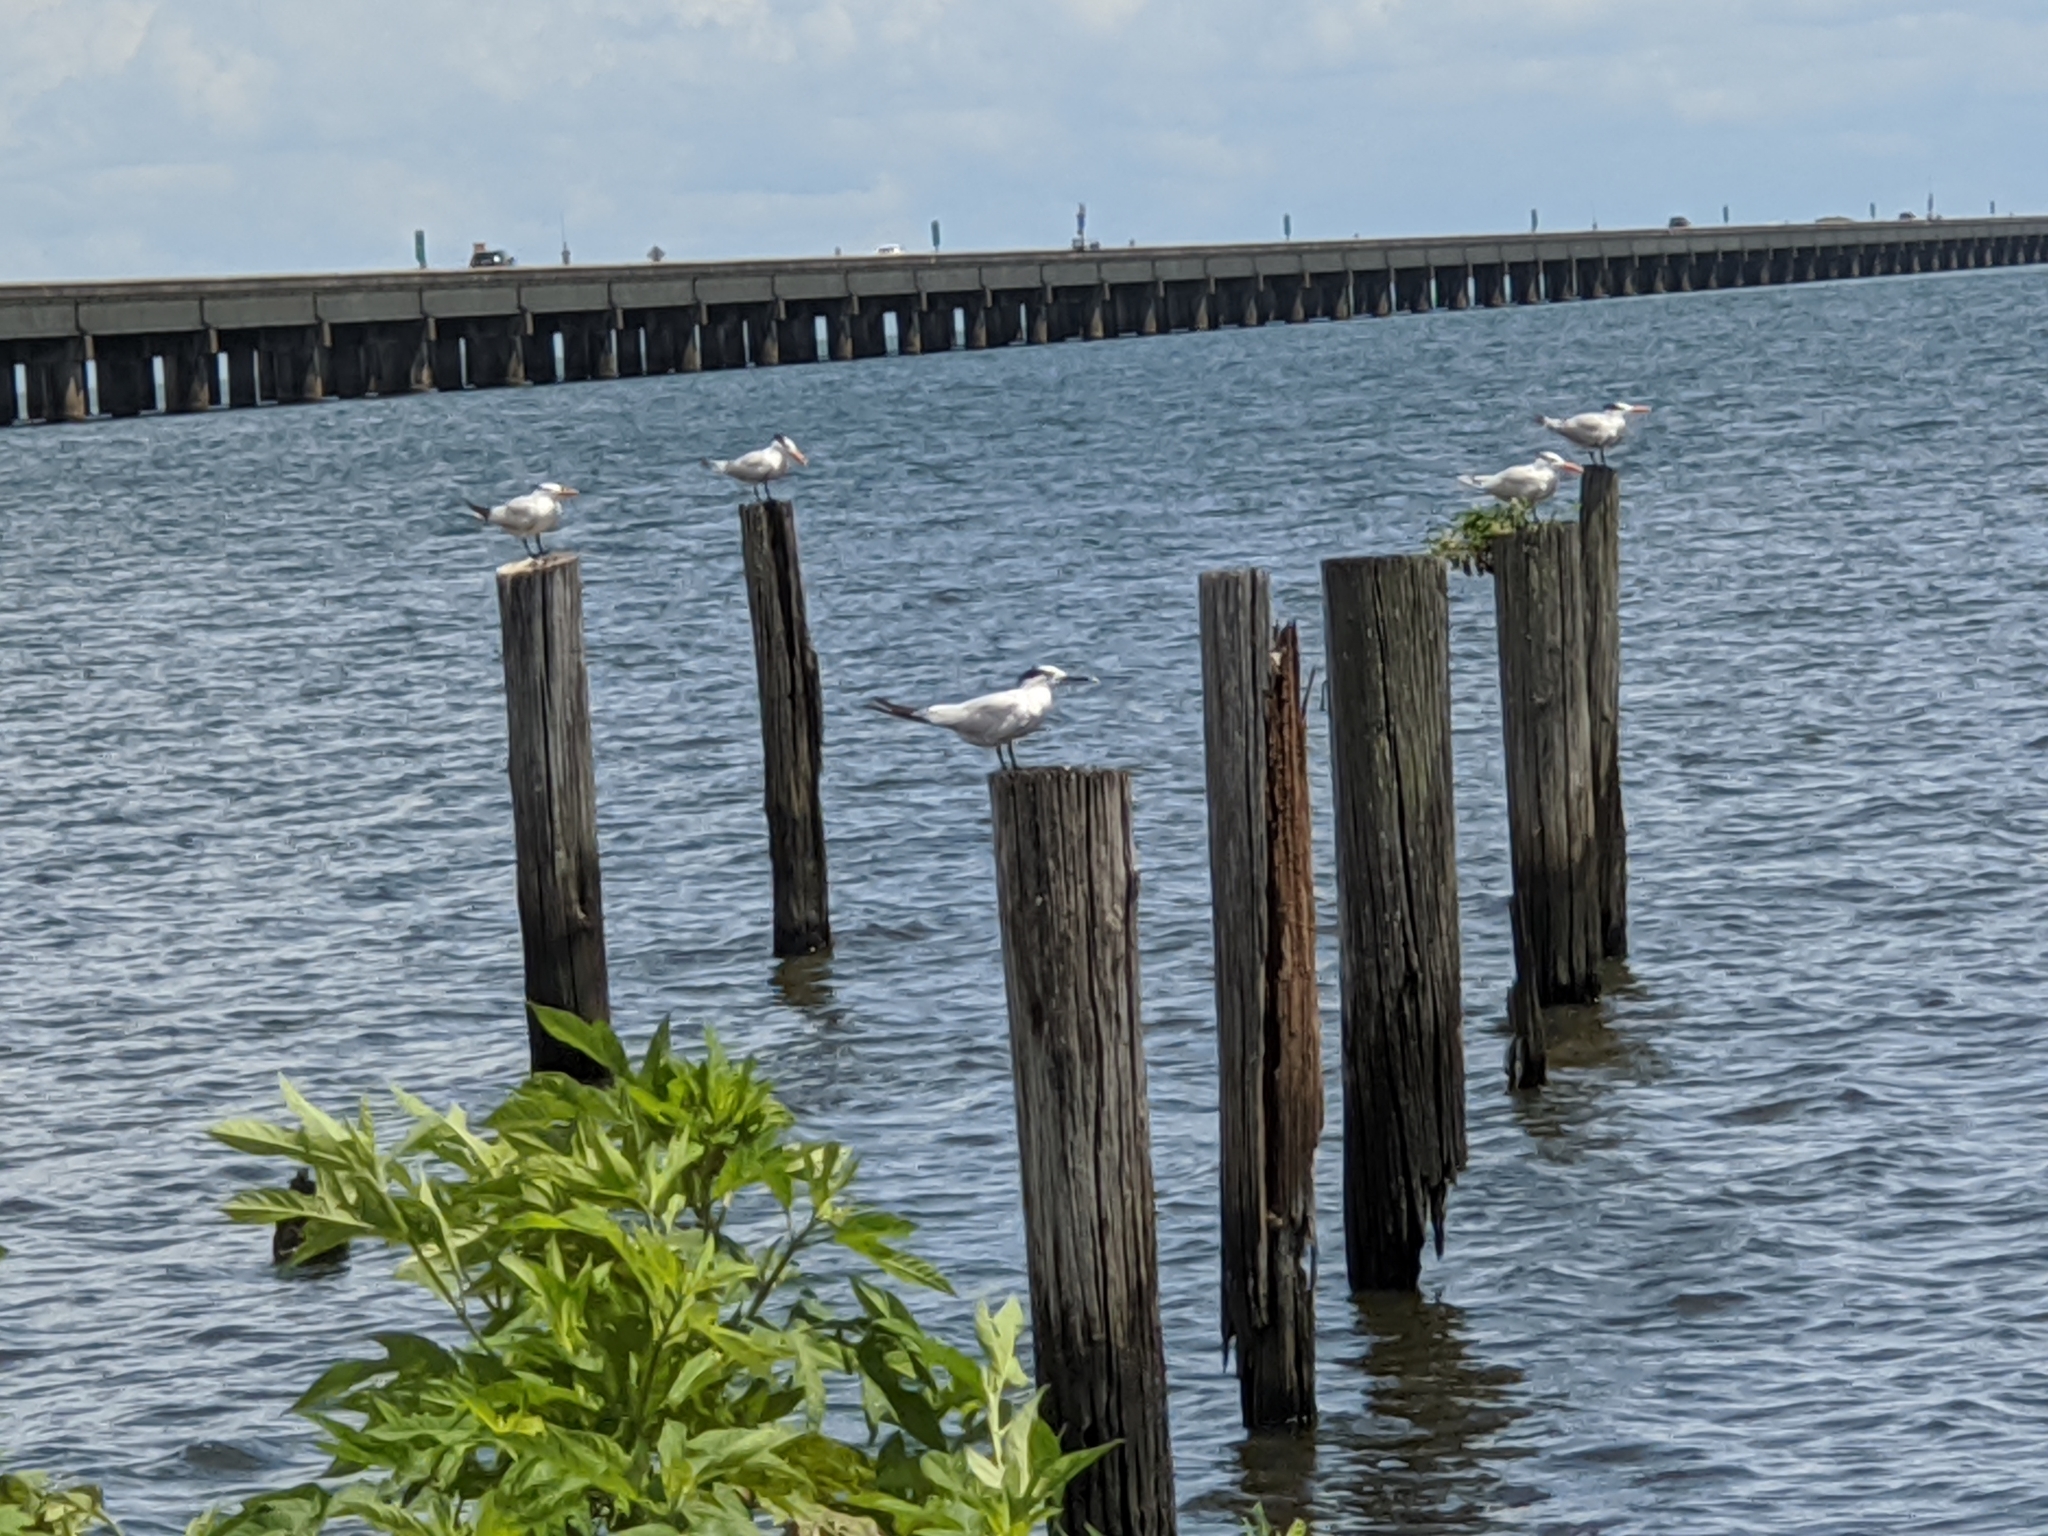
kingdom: Animalia
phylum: Chordata
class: Aves
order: Charadriiformes
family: Laridae
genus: Thalasseus
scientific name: Thalasseus sandvicensis
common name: Sandwich tern
